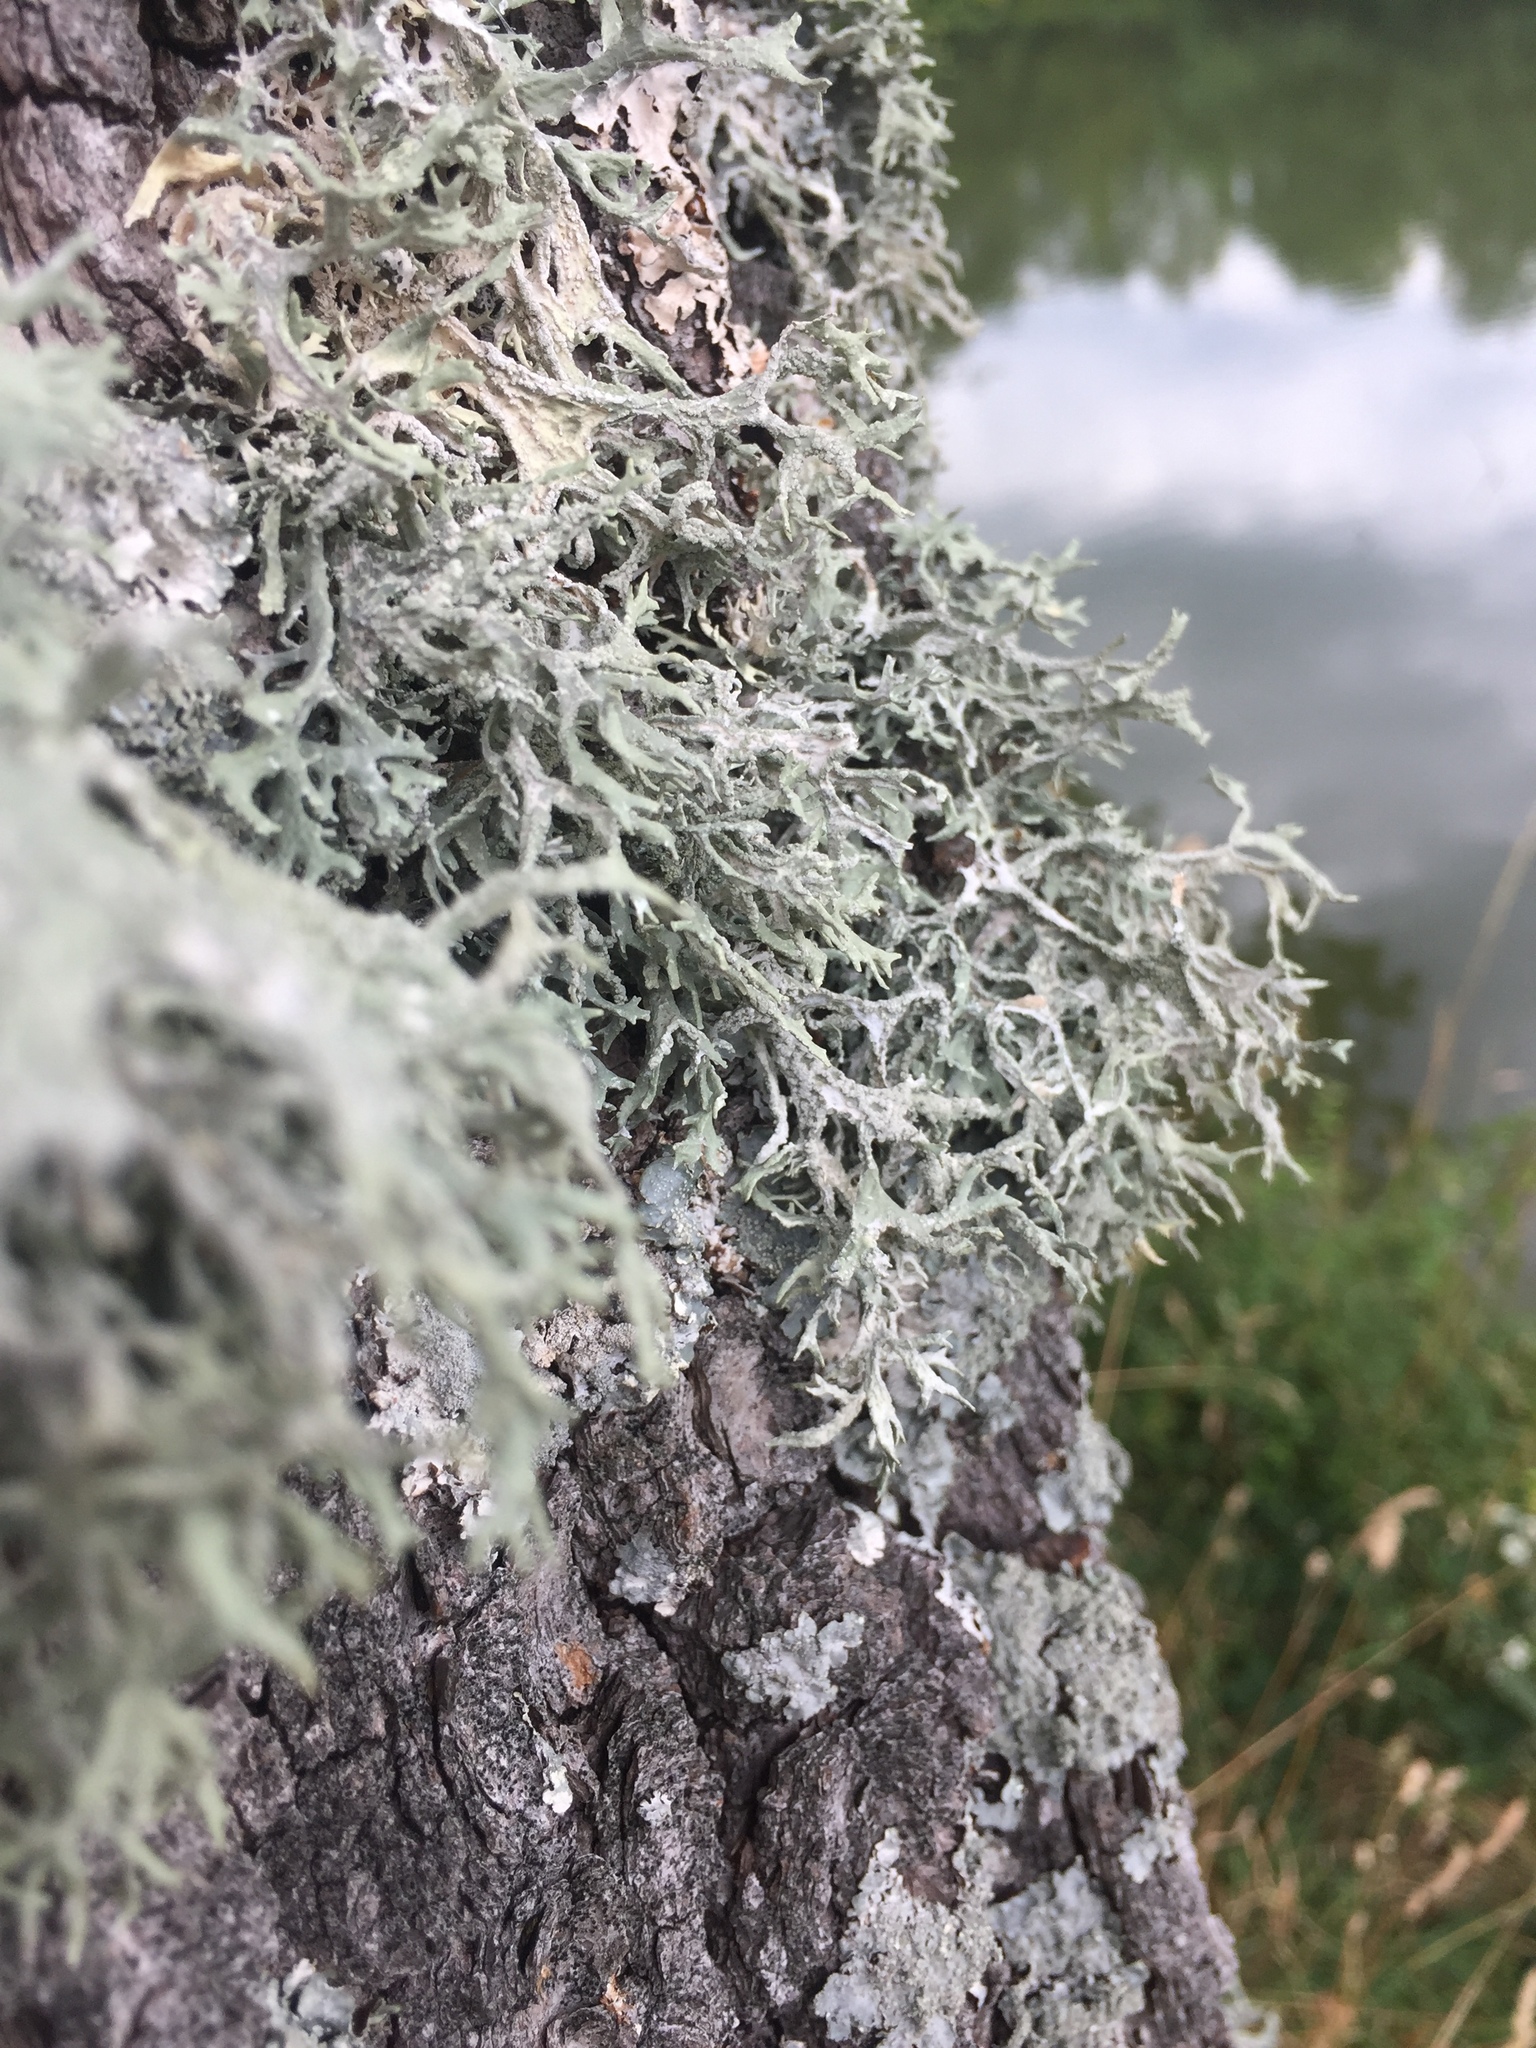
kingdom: Fungi
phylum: Ascomycota
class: Lecanoromycetes
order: Lecanorales
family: Parmeliaceae
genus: Evernia
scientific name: Evernia prunastri
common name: Oak moss
